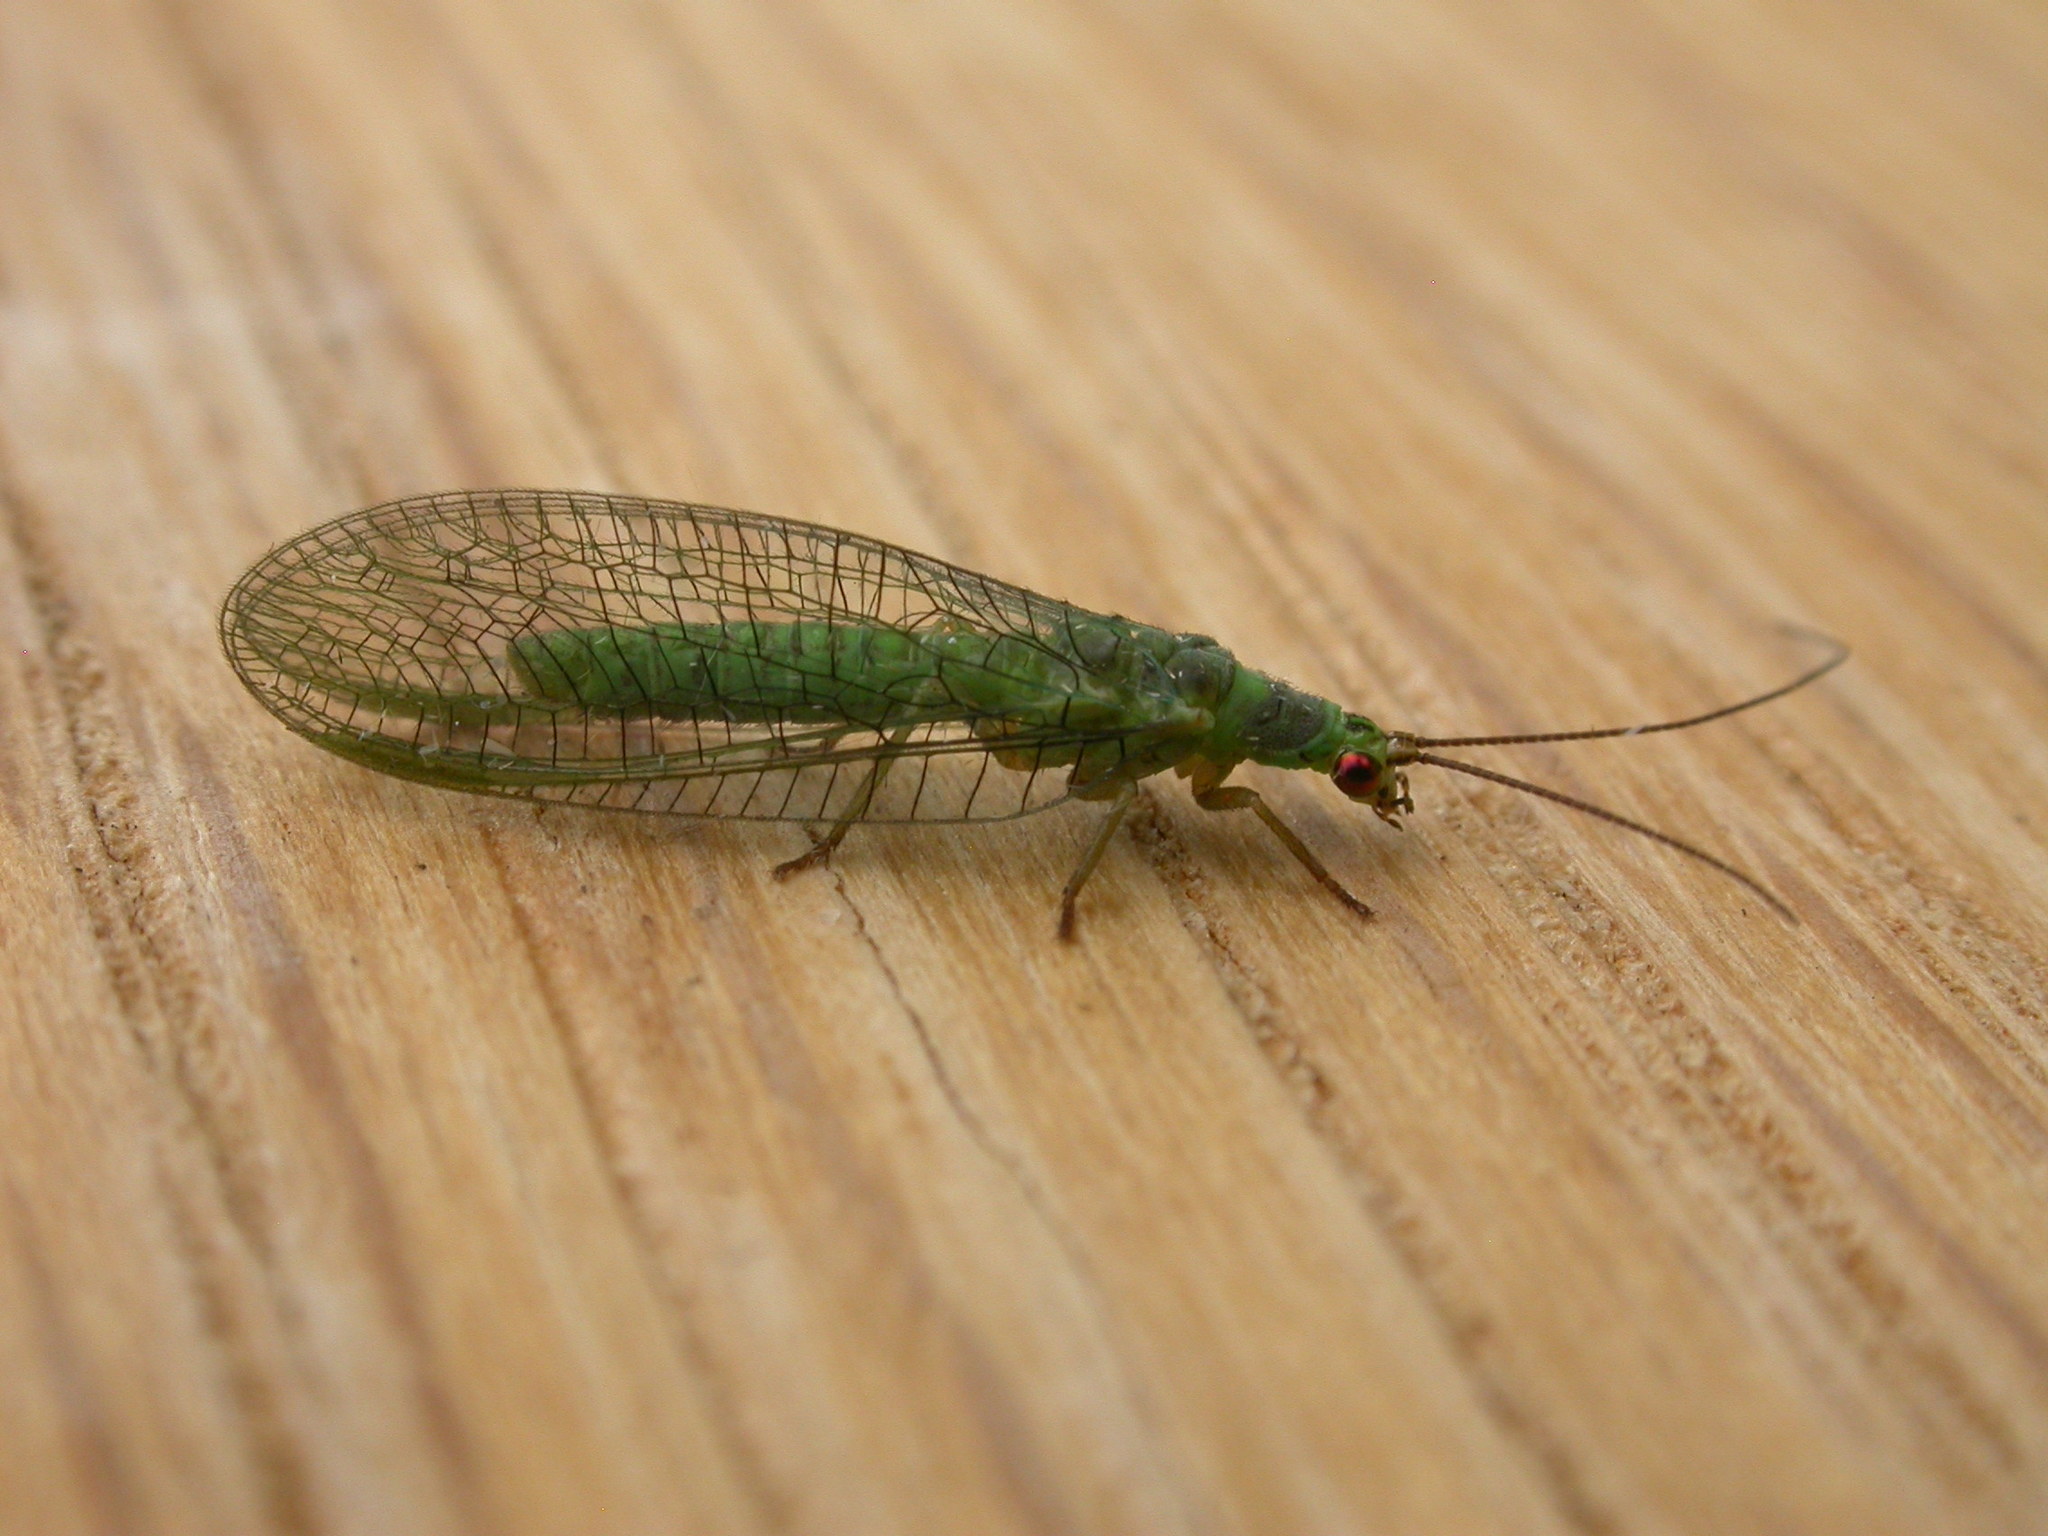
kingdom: Animalia
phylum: Arthropoda
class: Insecta
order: Neuroptera
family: Chrysopidae
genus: Mallada
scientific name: Mallada signatus
